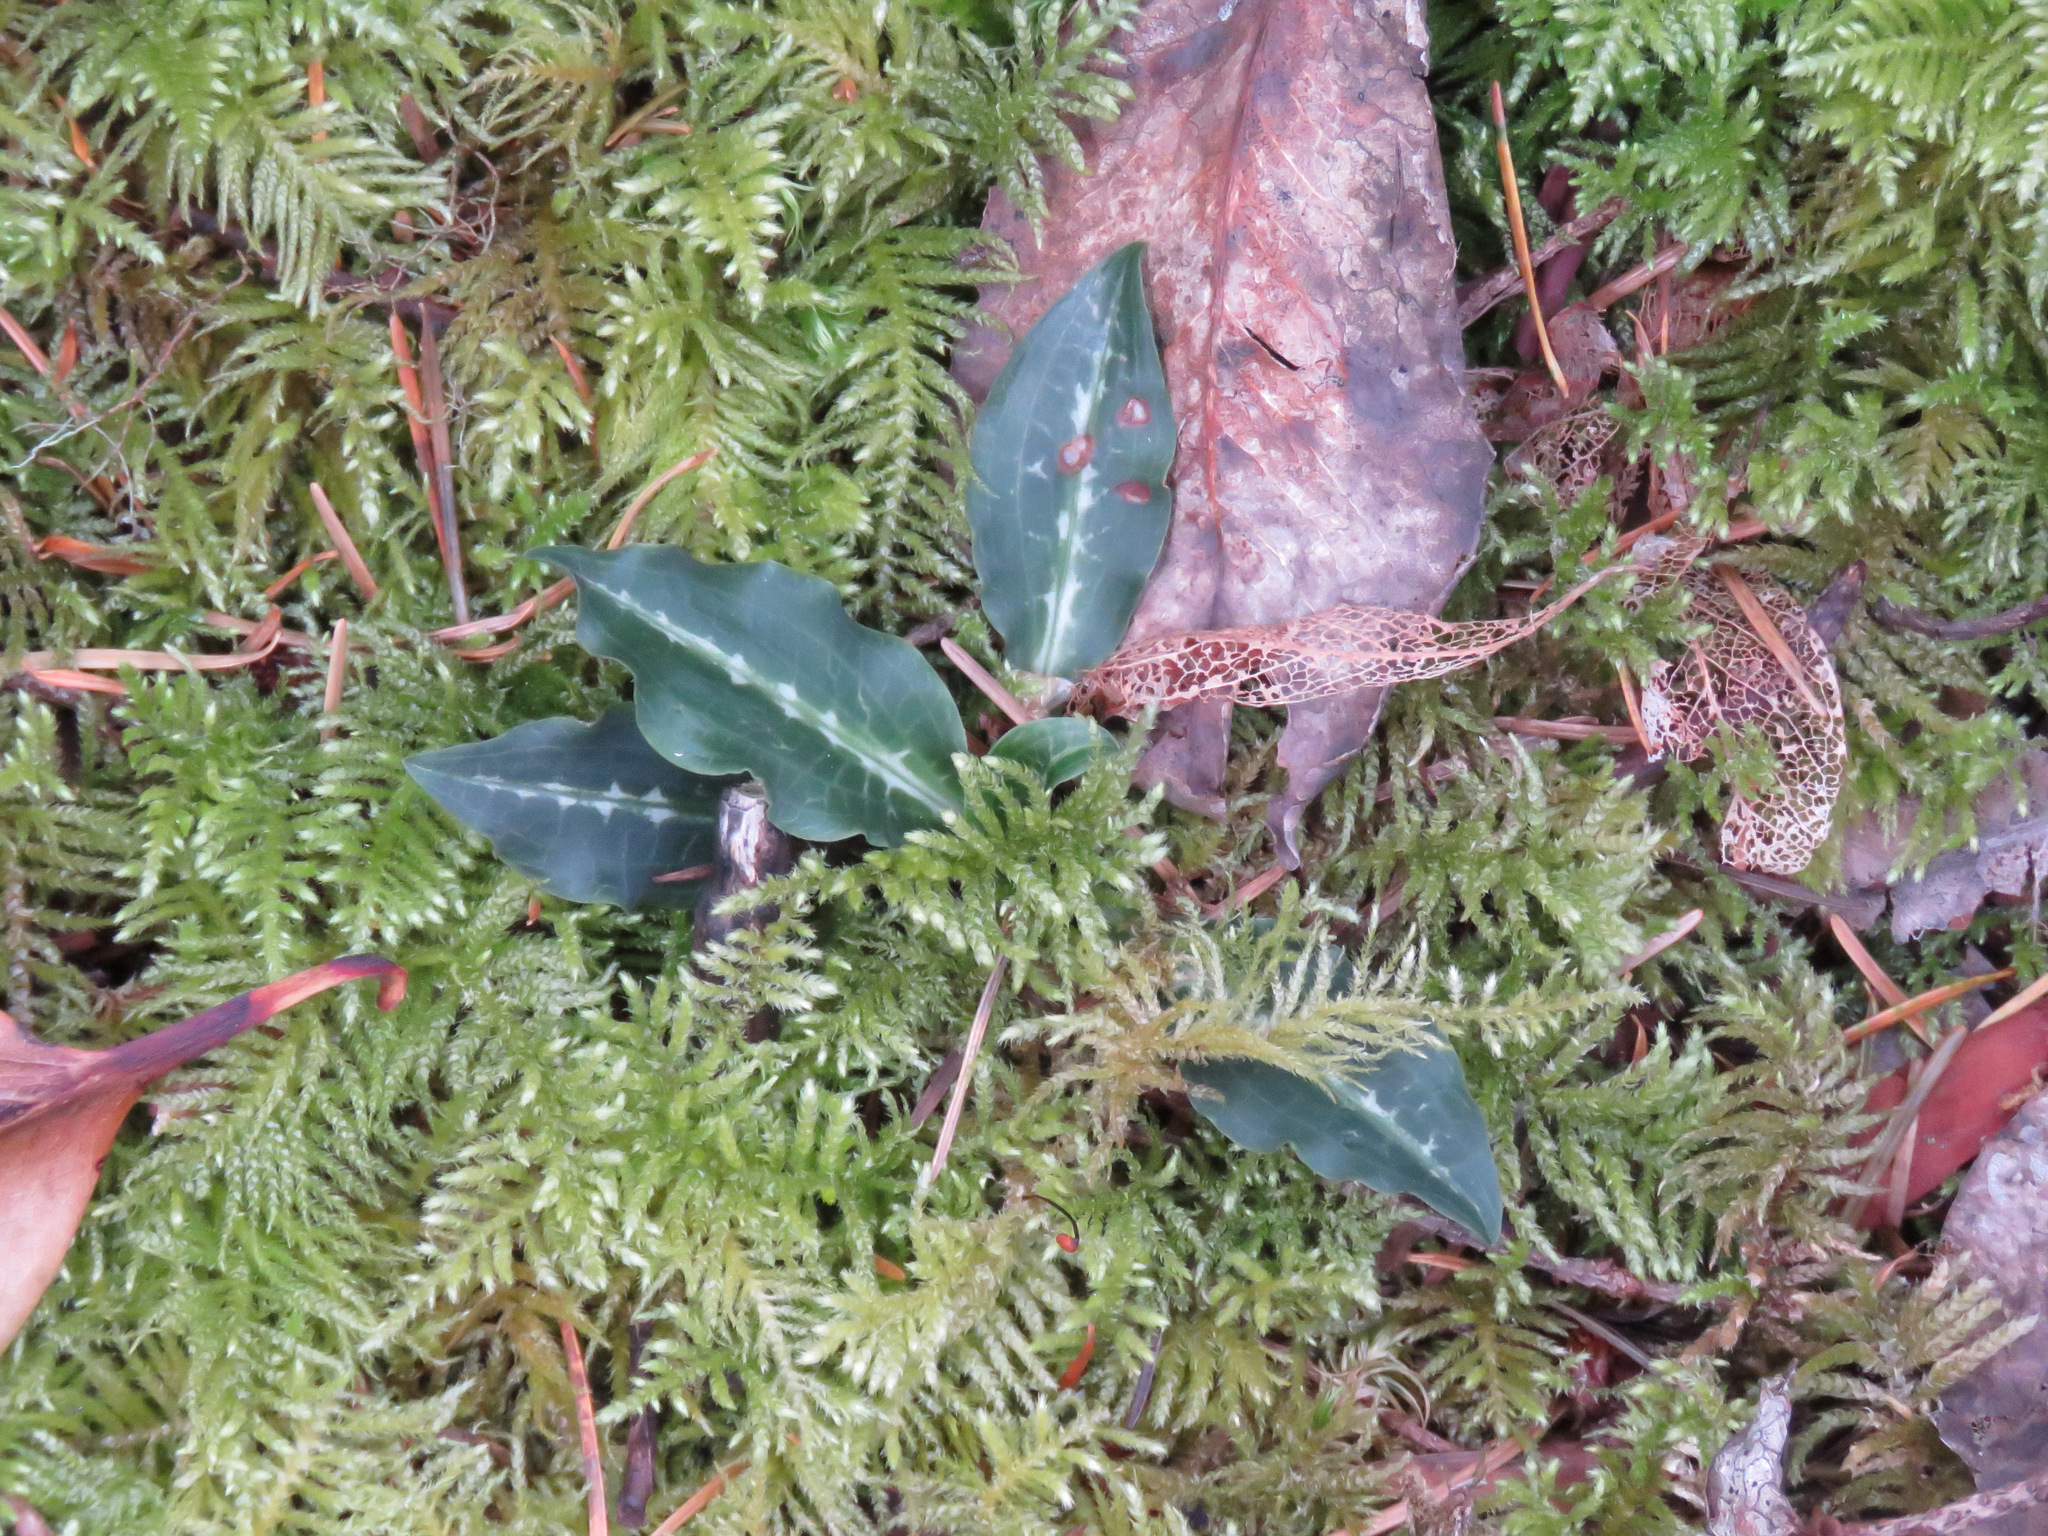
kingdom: Plantae
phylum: Tracheophyta
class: Liliopsida
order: Asparagales
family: Orchidaceae
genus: Goodyera
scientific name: Goodyera oblongifolia
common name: Giant rattlesnake-plantain
